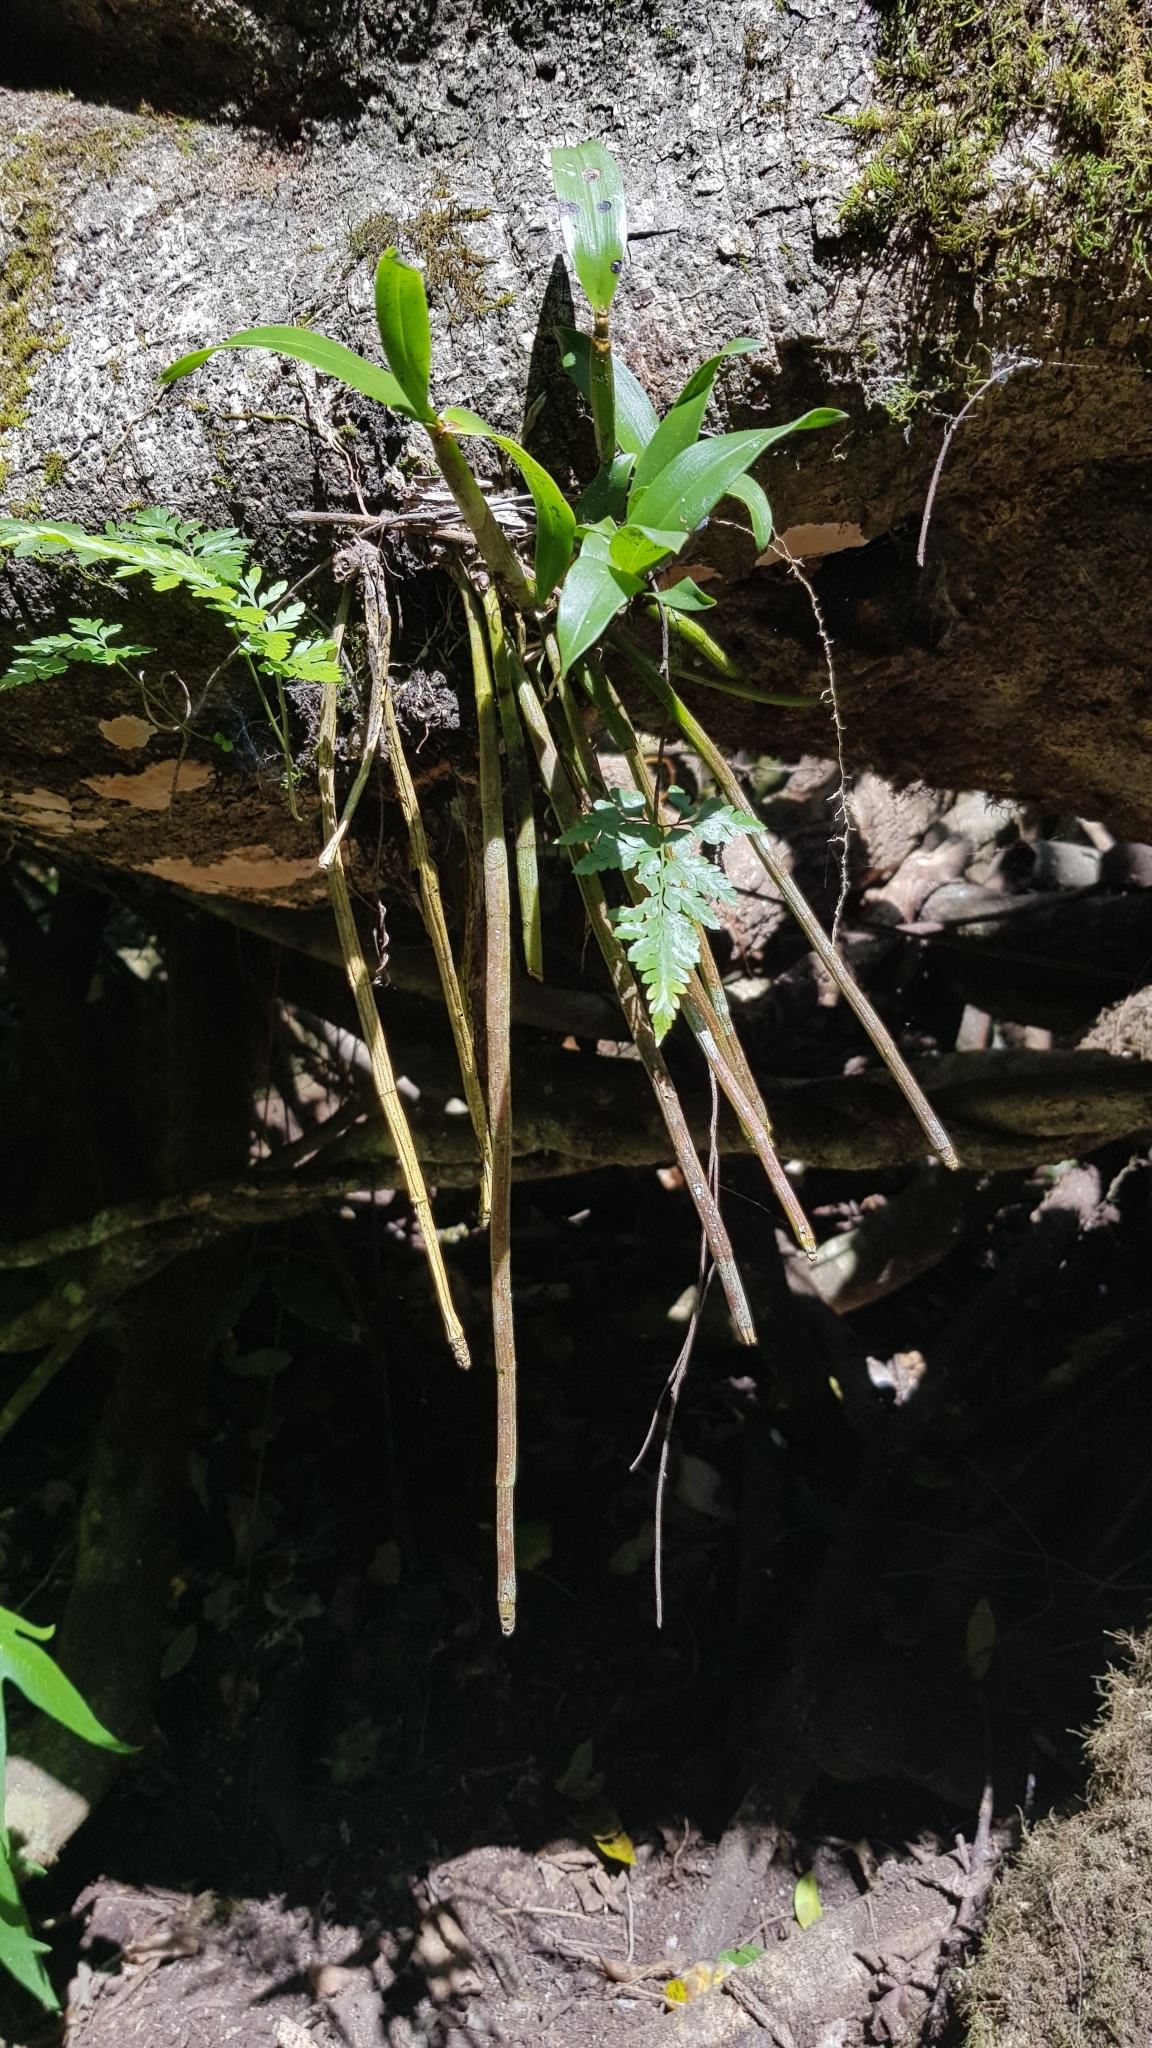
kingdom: Plantae
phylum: Tracheophyta
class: Liliopsida
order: Asparagales
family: Orchidaceae
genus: Dendrobium
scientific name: Dendrobium gracilicaule
